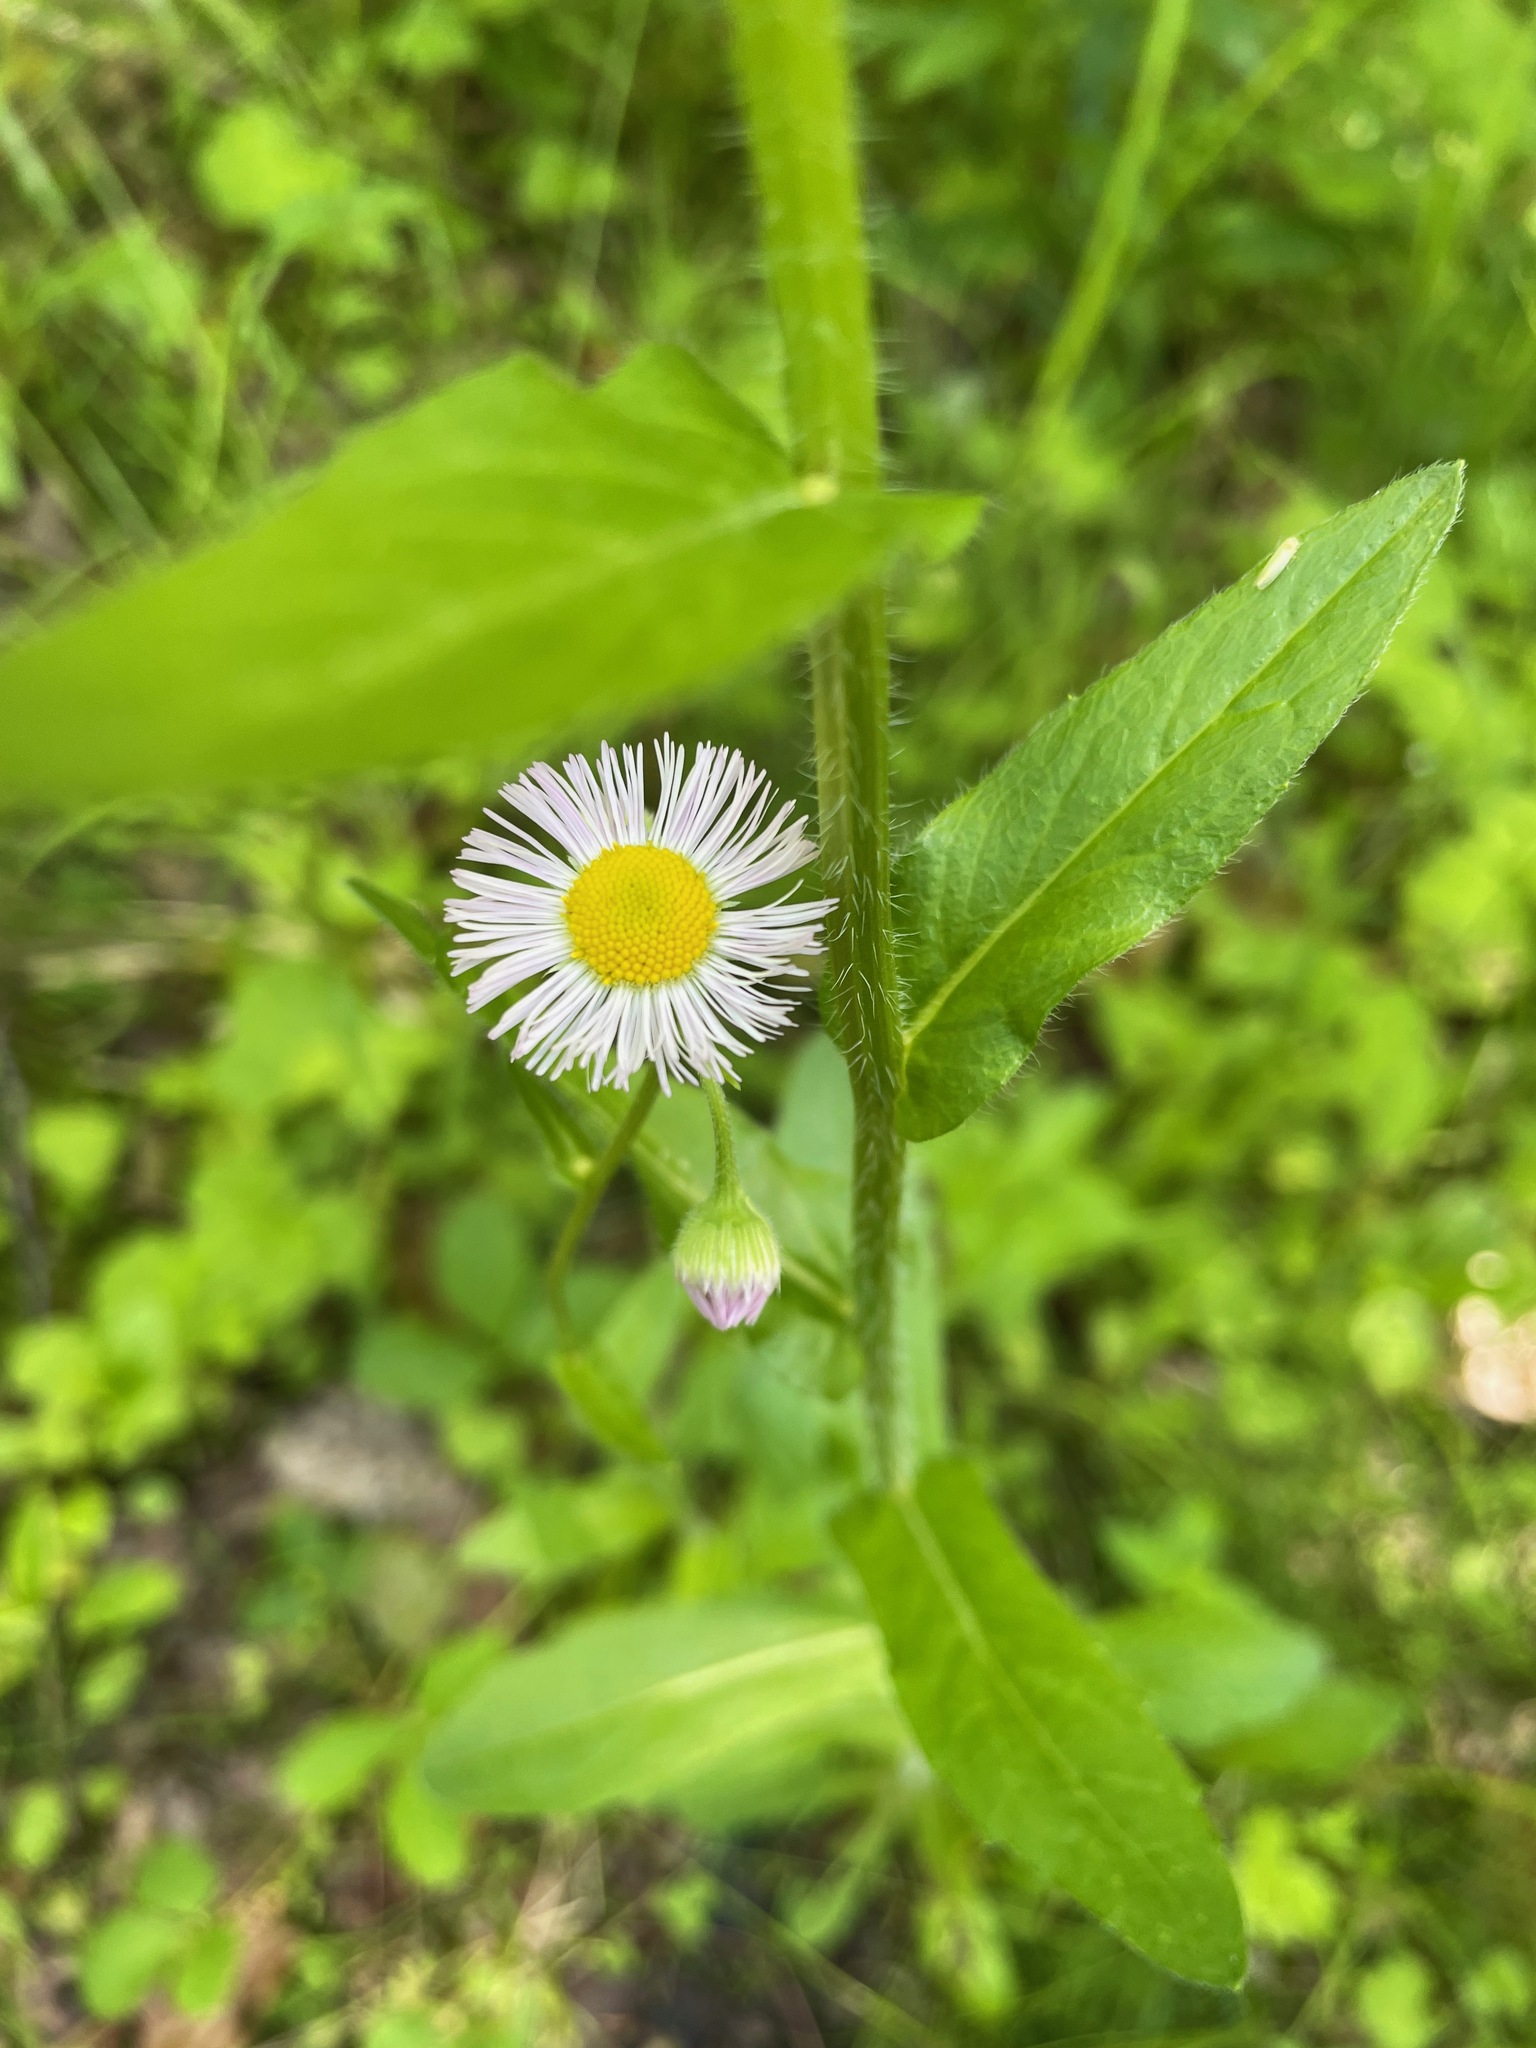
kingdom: Plantae
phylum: Tracheophyta
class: Magnoliopsida
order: Asterales
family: Asteraceae
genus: Erigeron
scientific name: Erigeron philadelphicus
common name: Robin's-plantain
